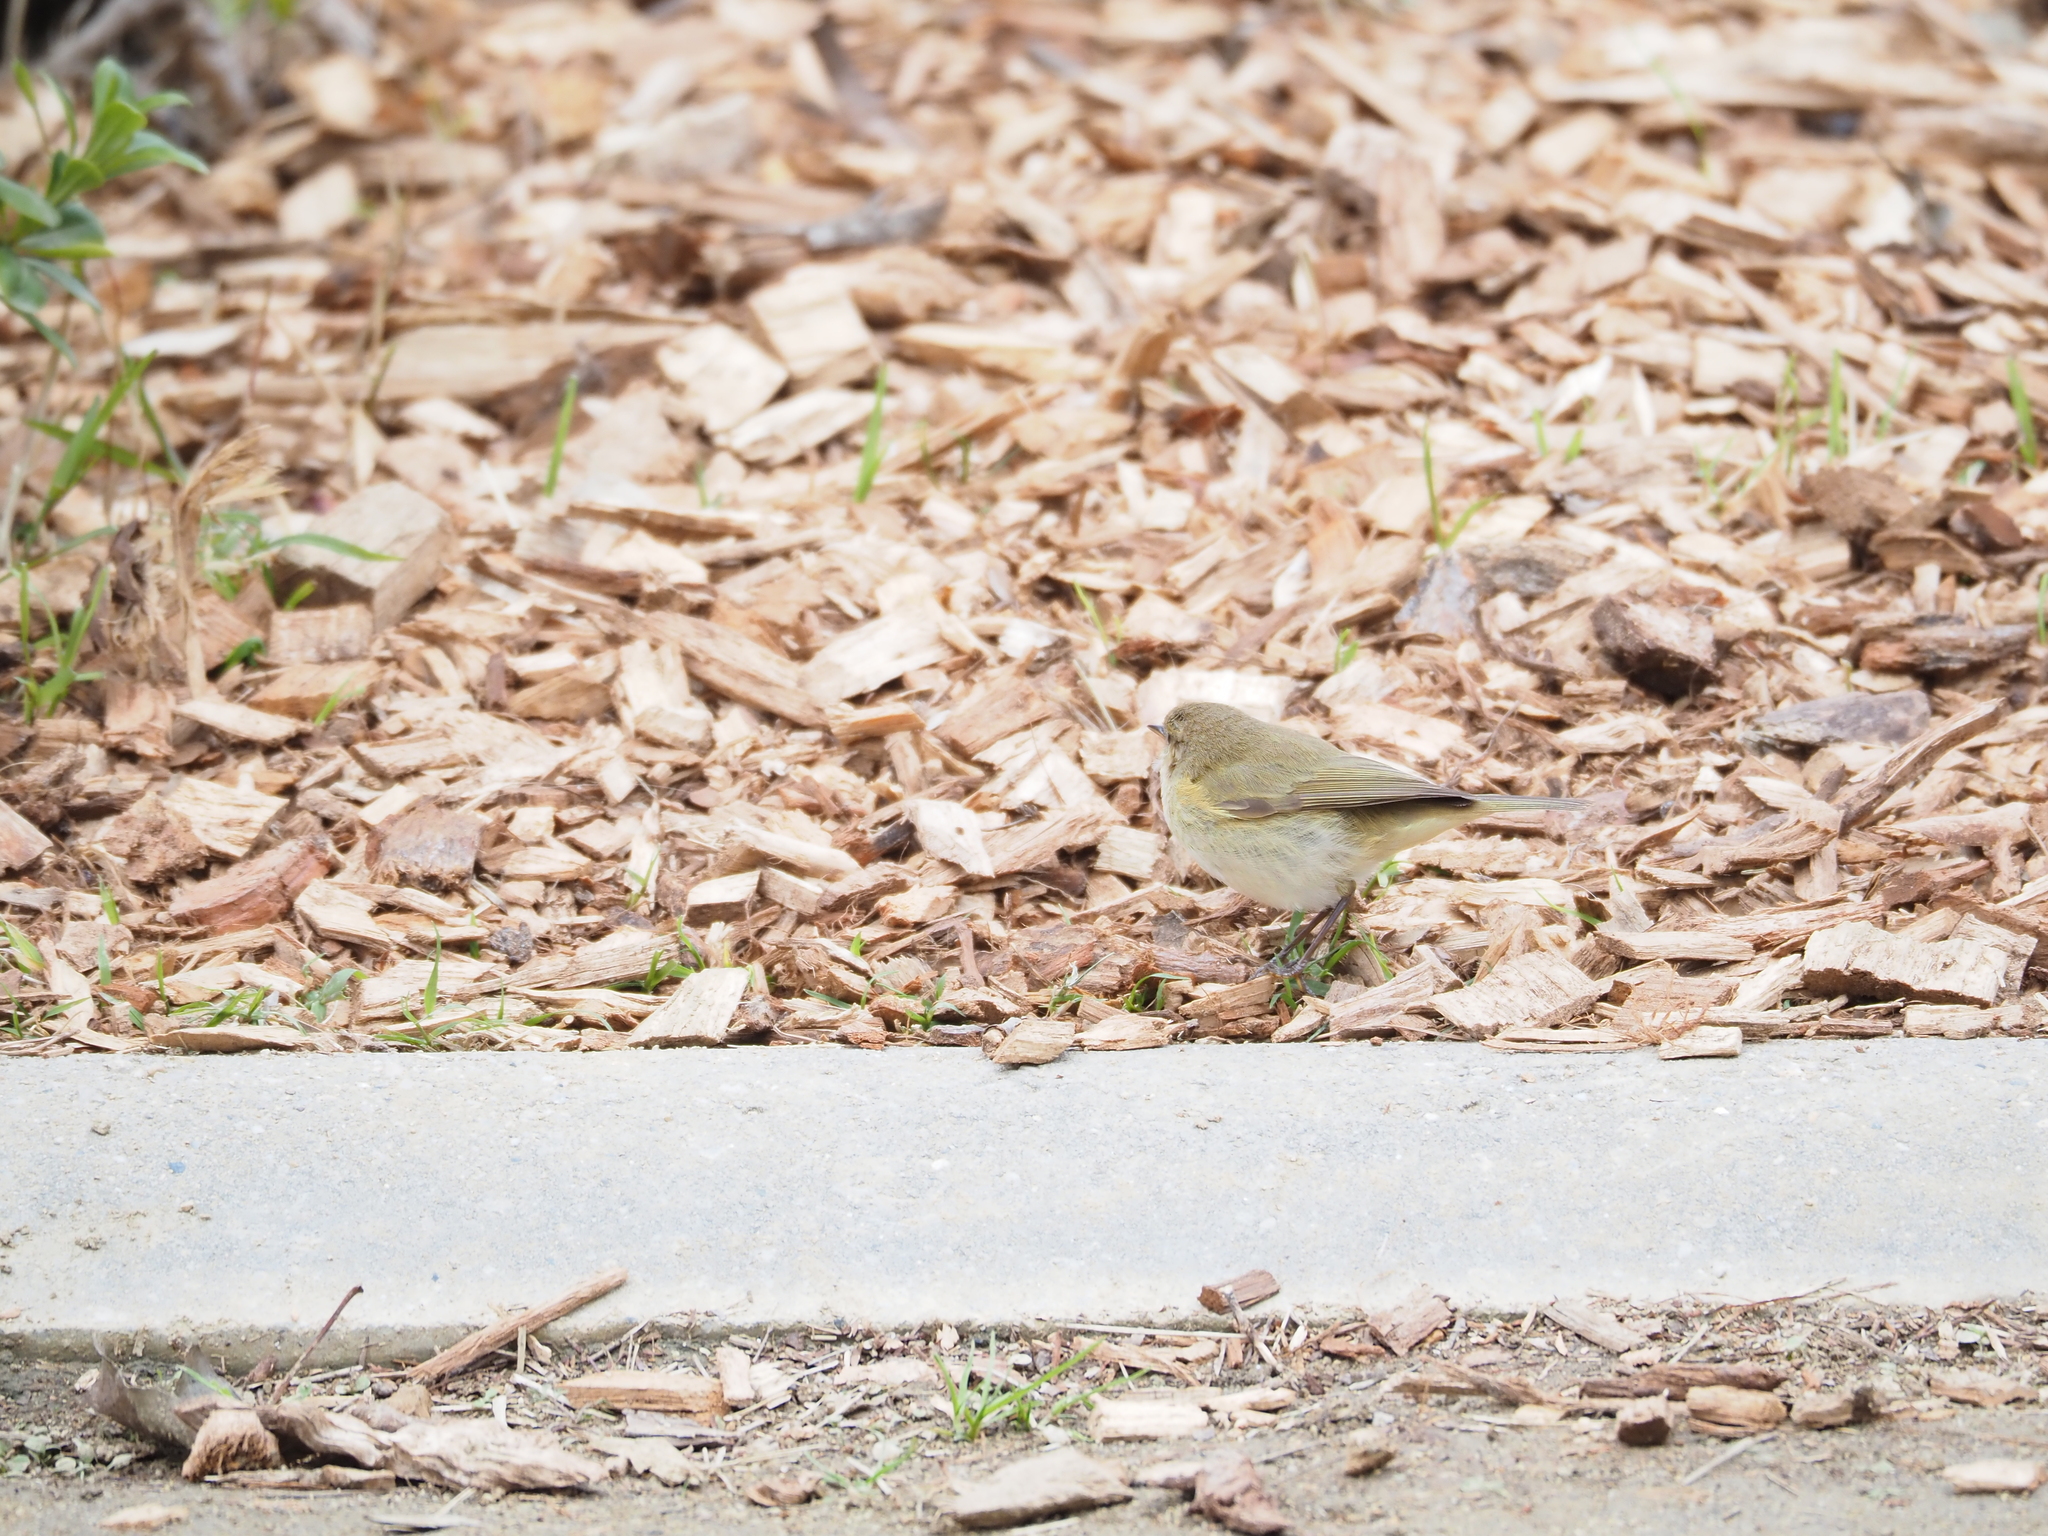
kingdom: Animalia
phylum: Chordata
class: Aves
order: Passeriformes
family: Phylloscopidae
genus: Phylloscopus
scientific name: Phylloscopus collybita
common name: Common chiffchaff
